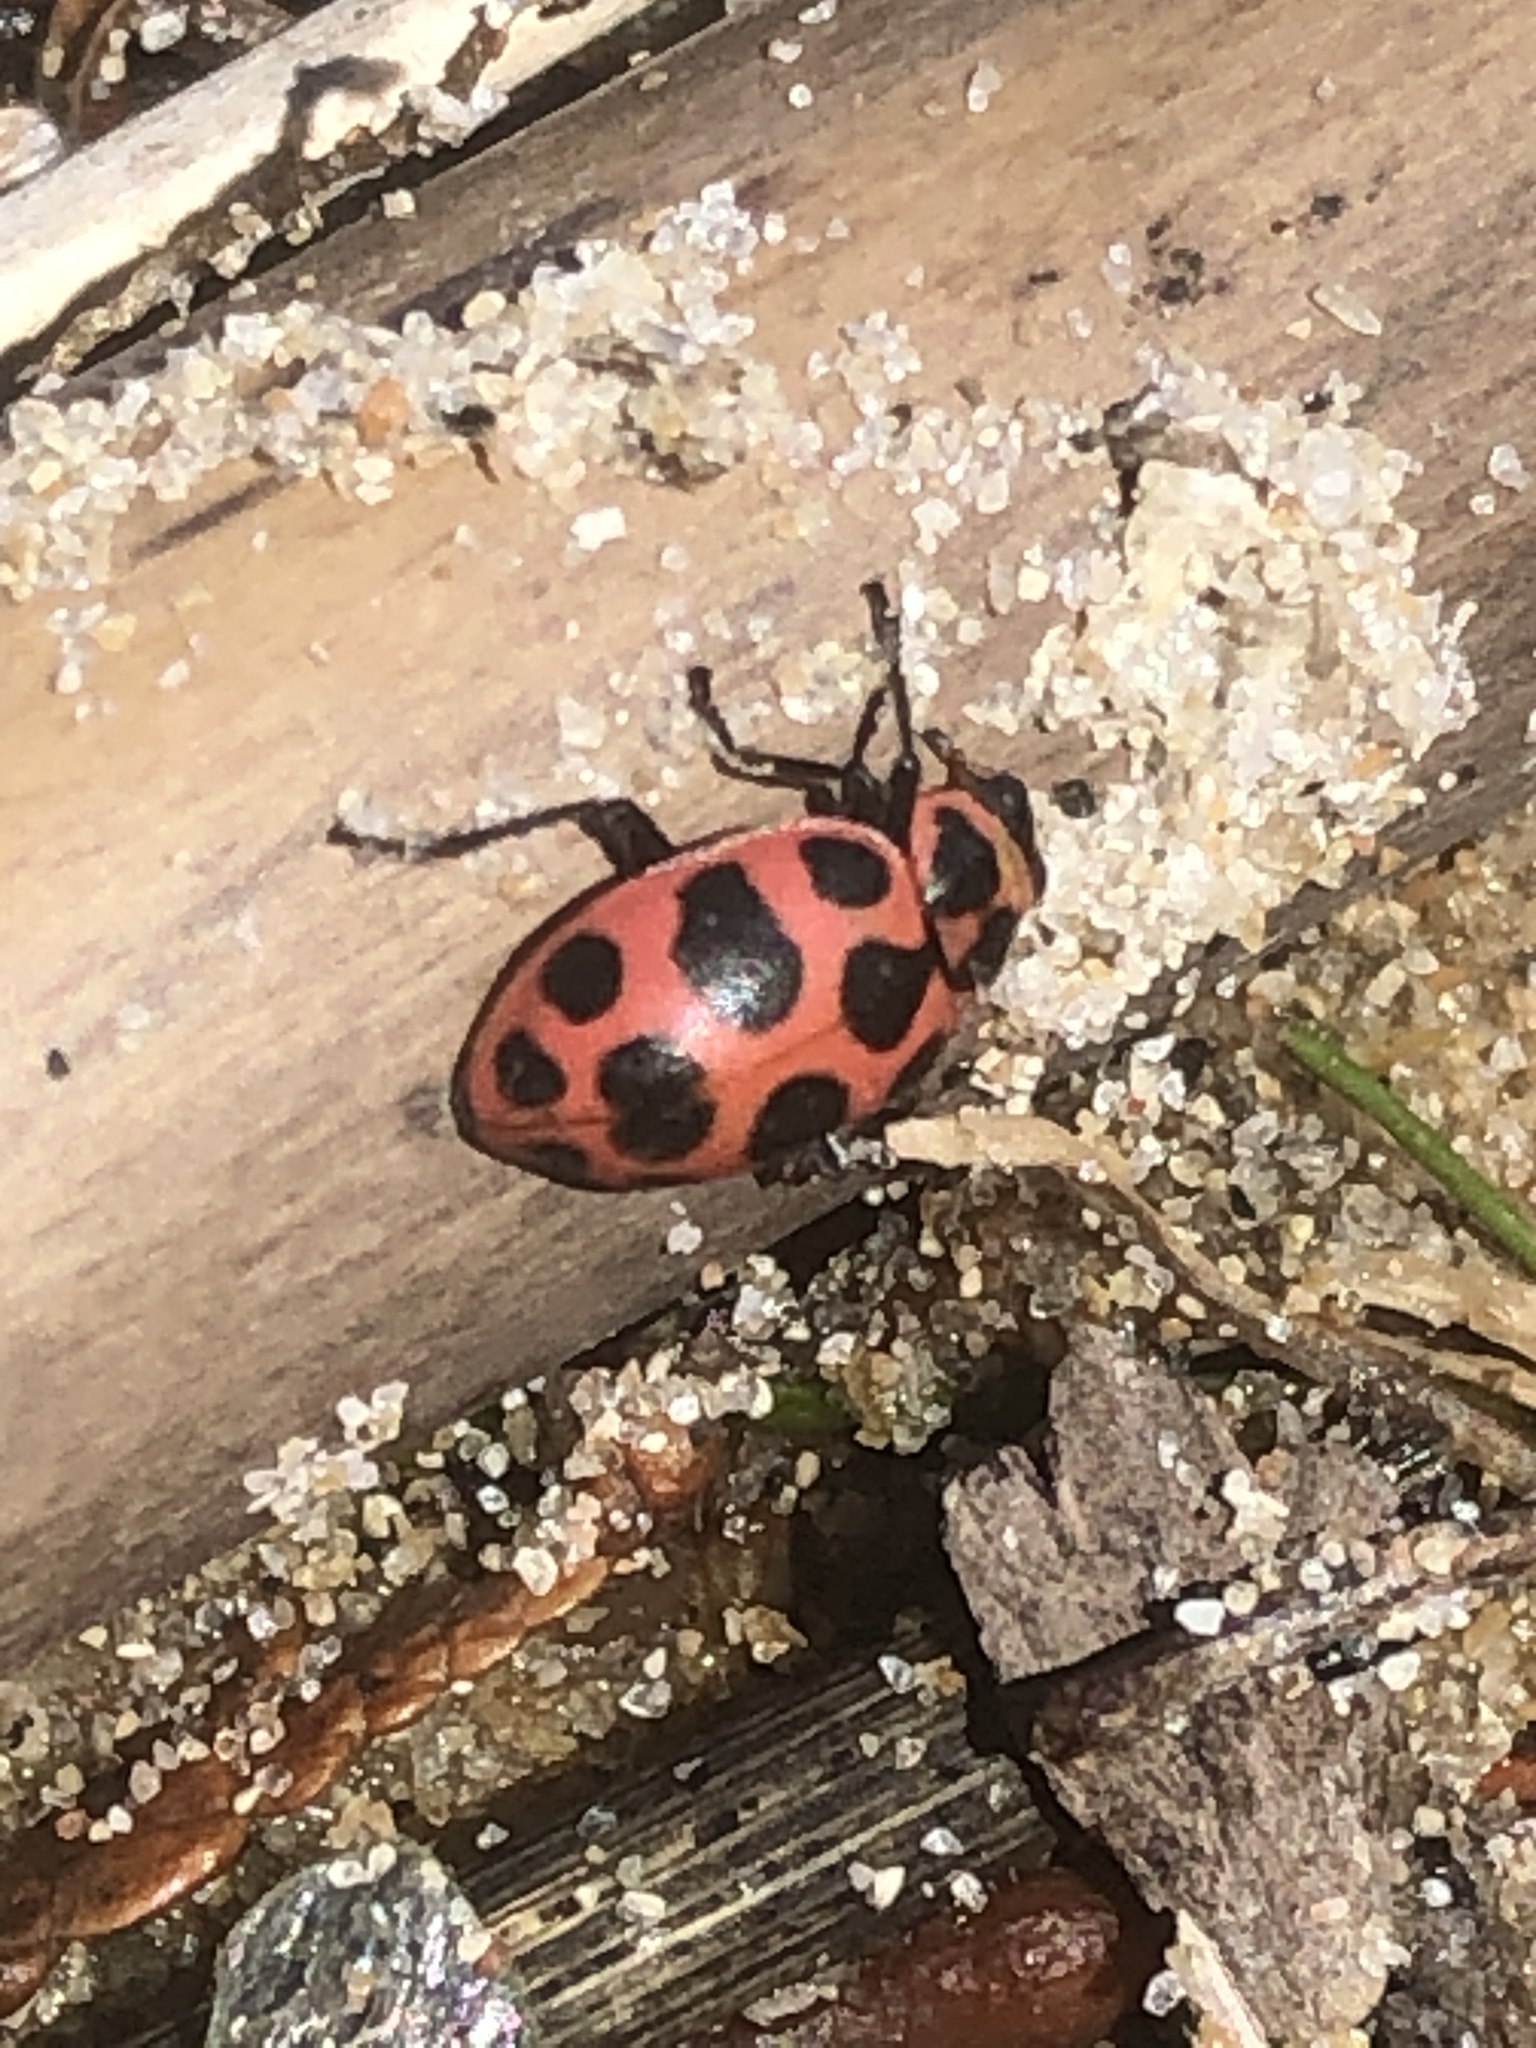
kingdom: Animalia
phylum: Arthropoda
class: Insecta
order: Coleoptera
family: Coccinellidae
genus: Coleomegilla
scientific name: Coleomegilla maculata
